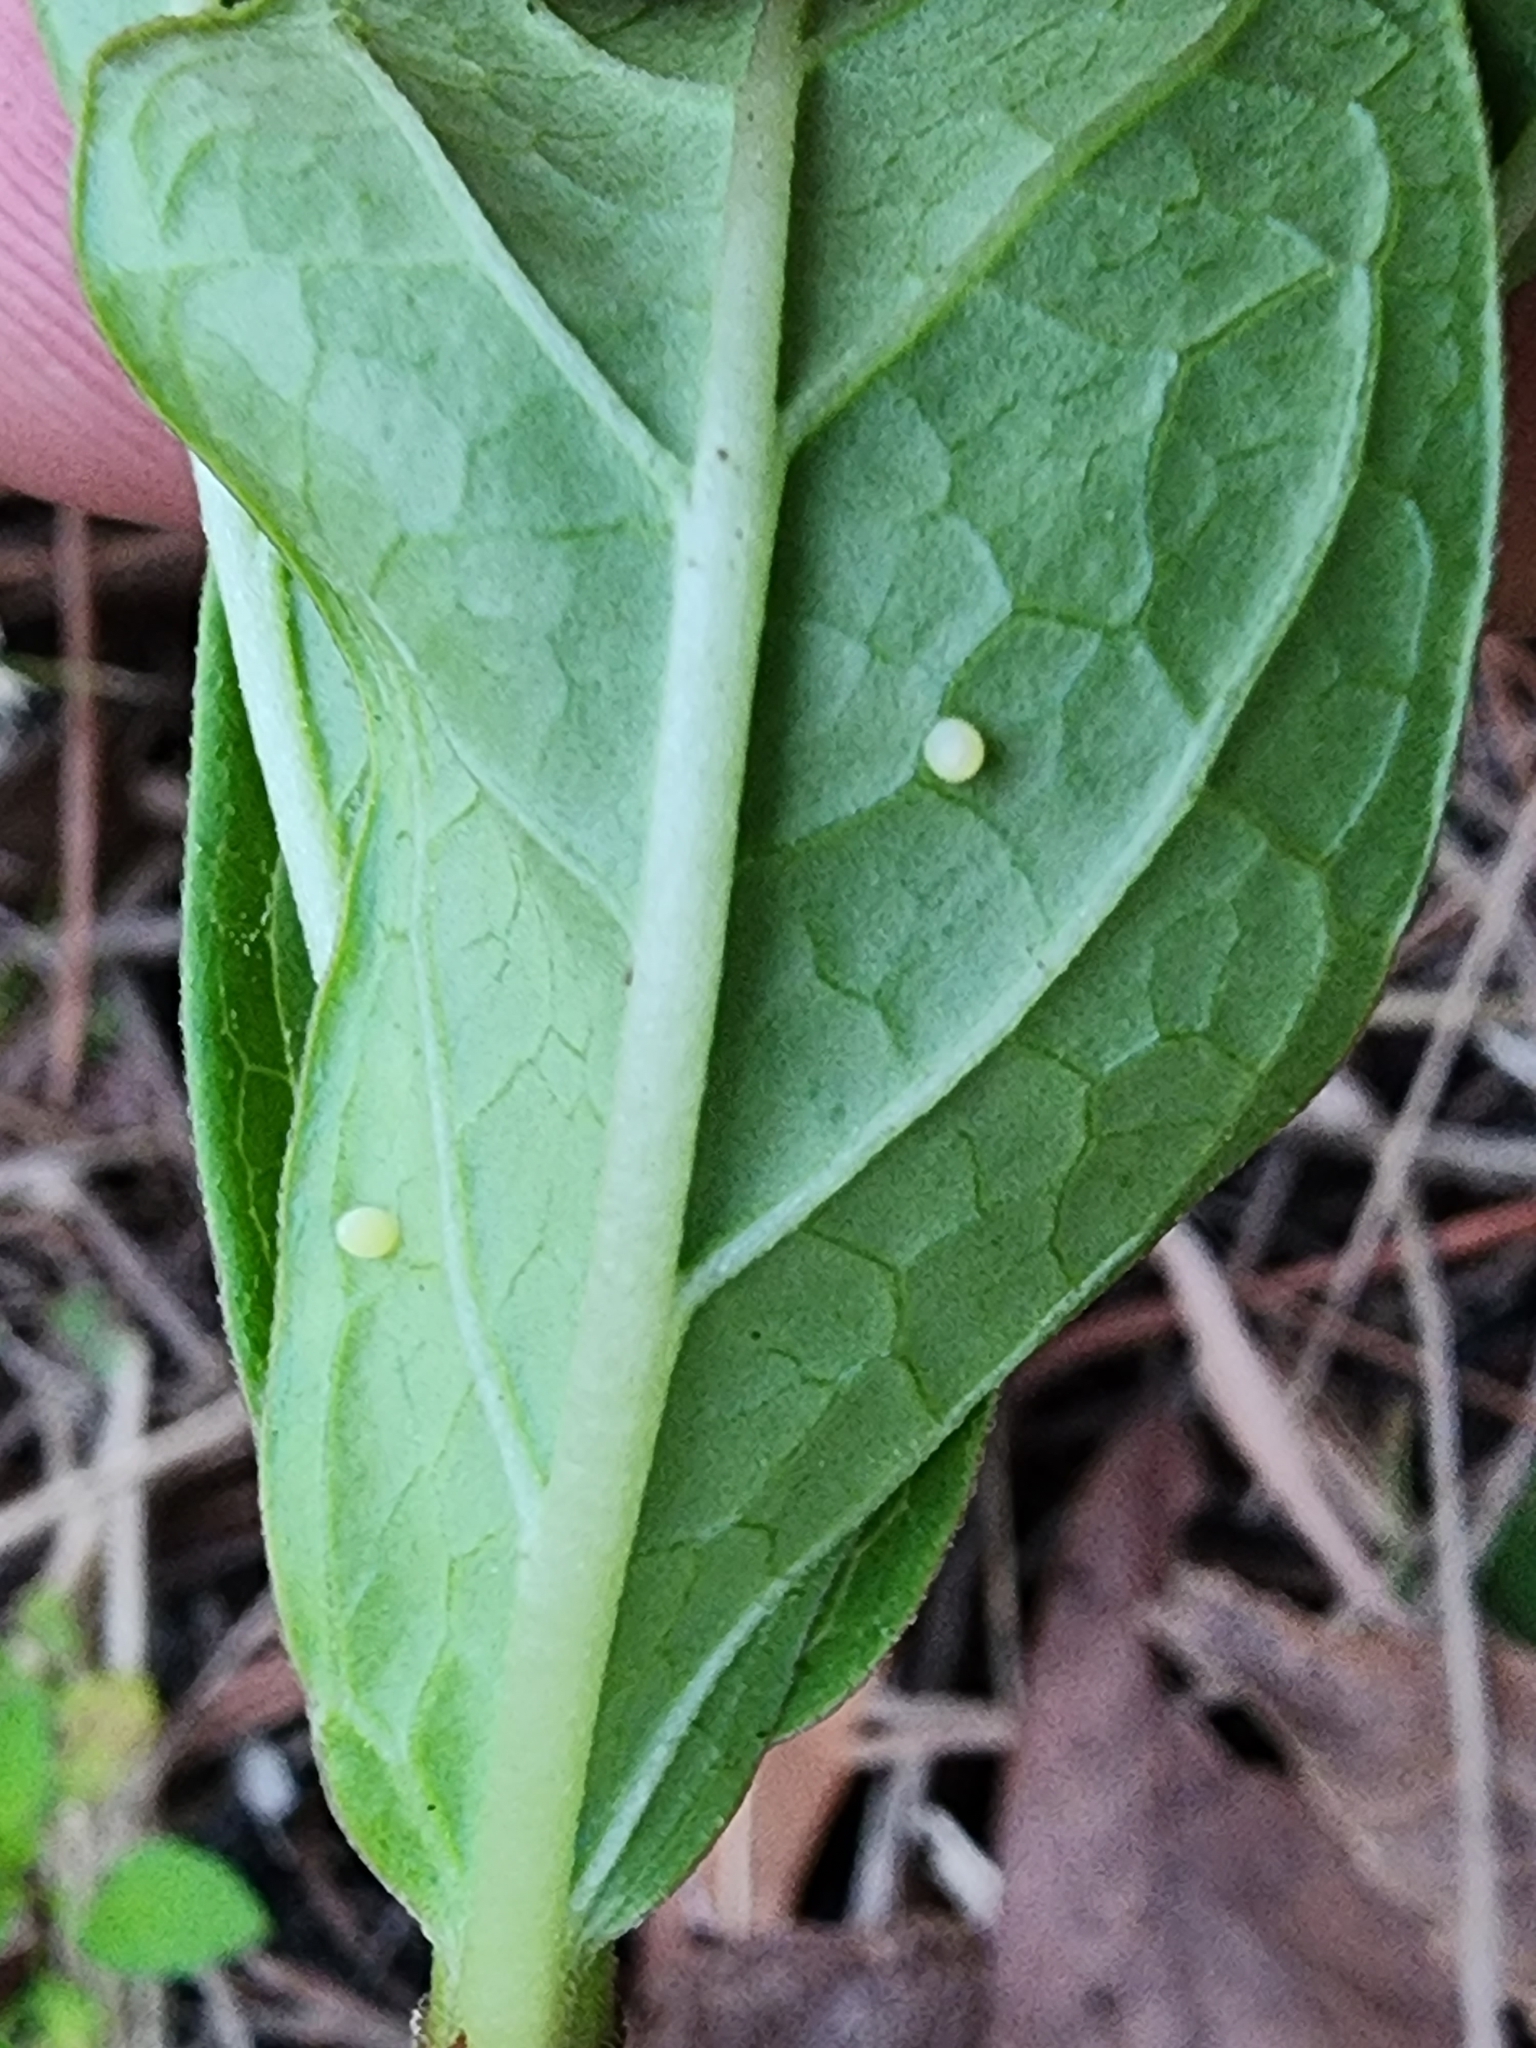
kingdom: Animalia
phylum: Arthropoda
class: Insecta
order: Lepidoptera
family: Nymphalidae
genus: Danaus
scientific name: Danaus plexippus
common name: Monarch
